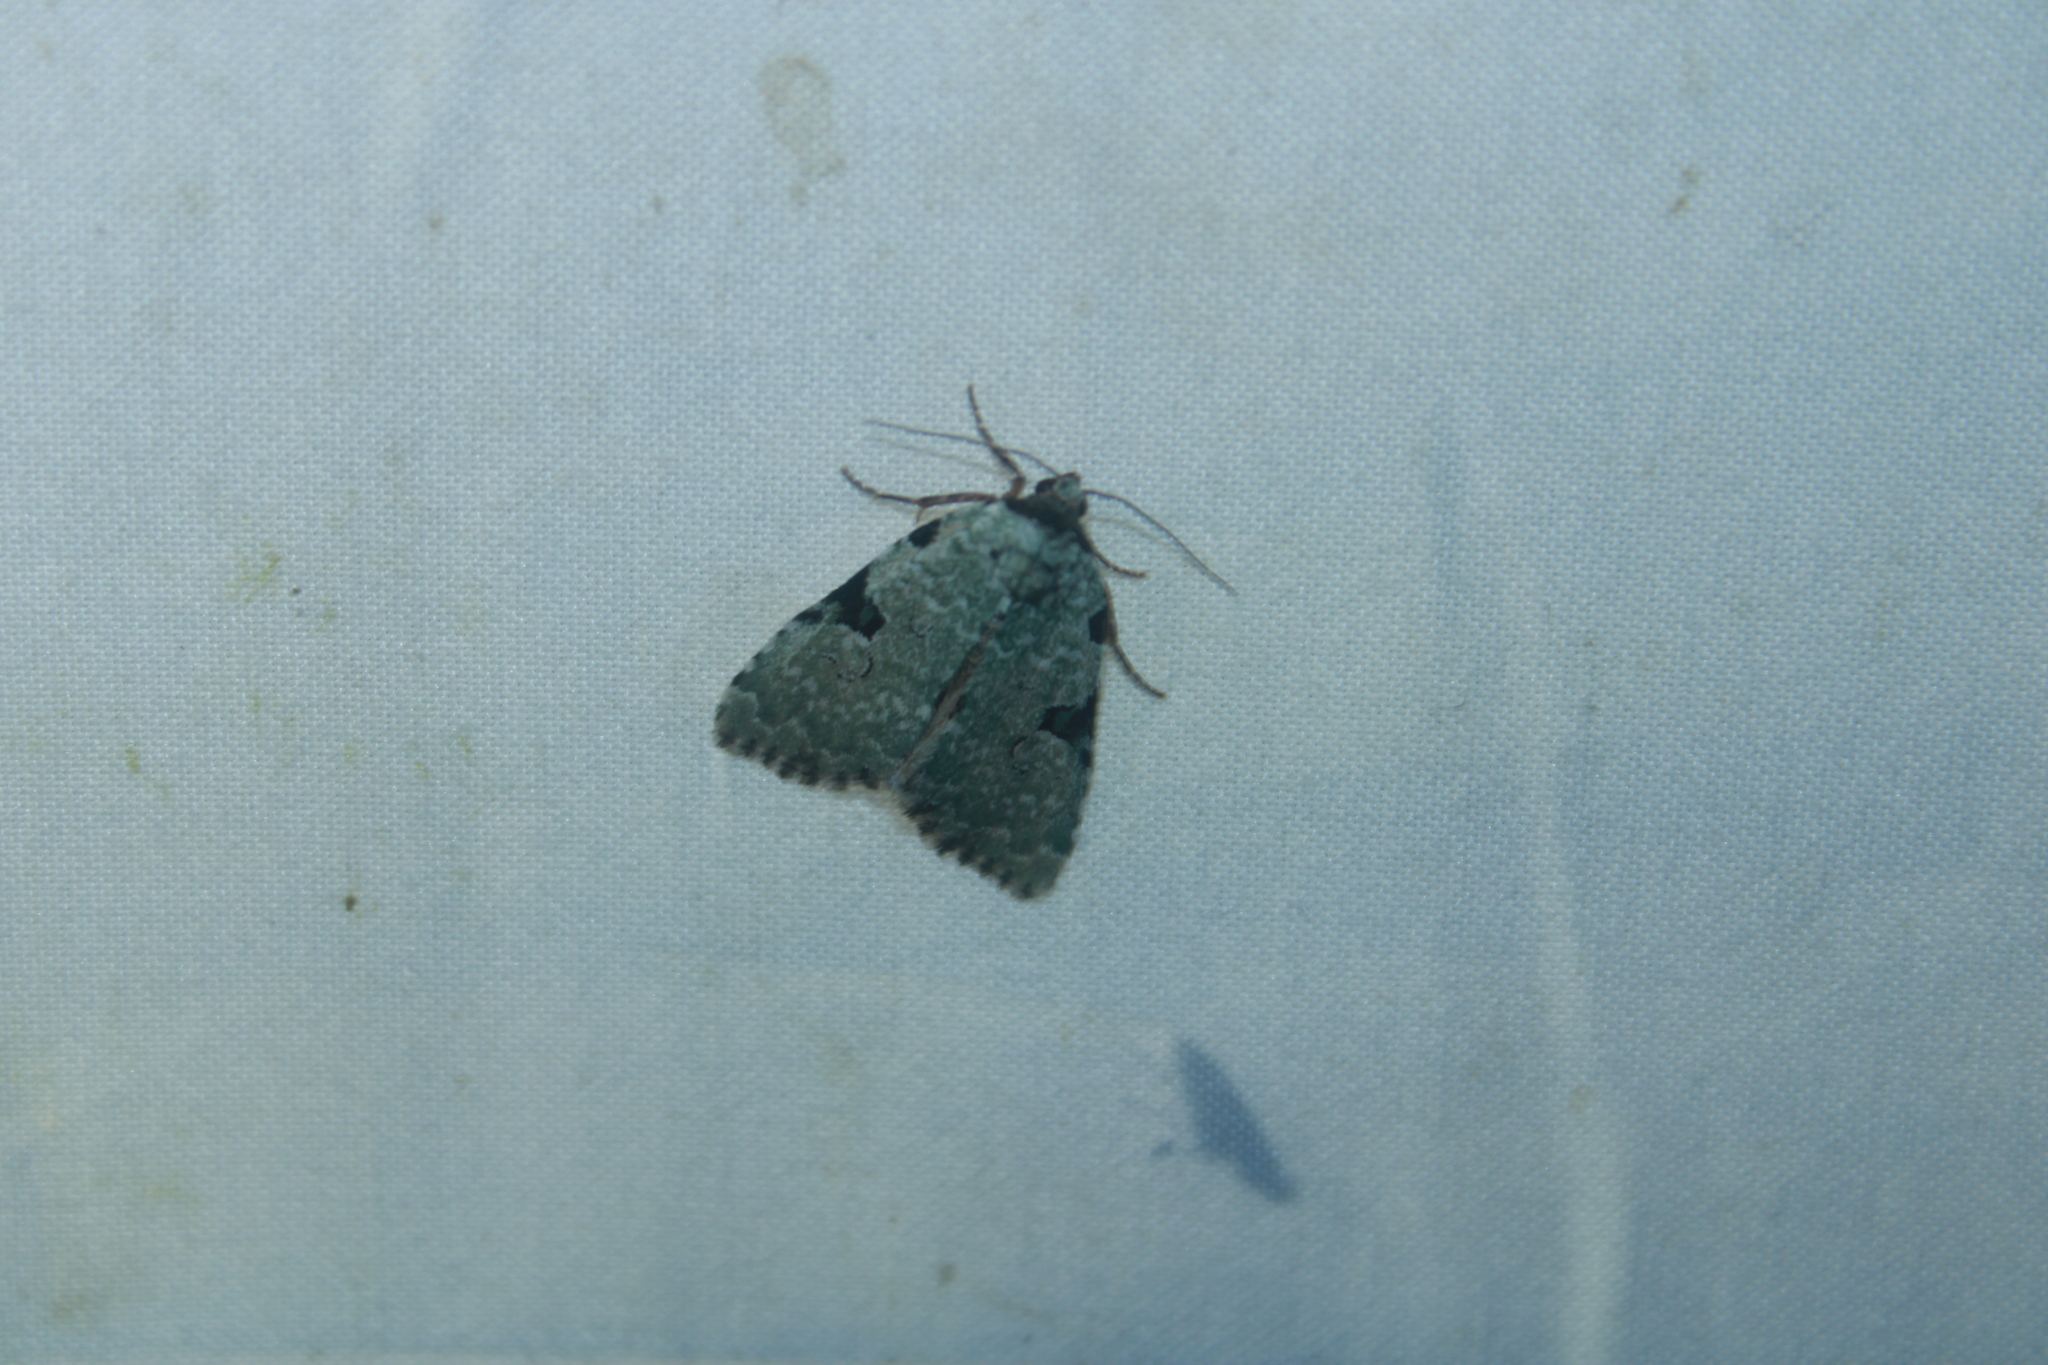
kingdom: Animalia
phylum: Arthropoda
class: Insecta
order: Lepidoptera
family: Noctuidae
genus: Leuconycta
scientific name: Leuconycta diphteroides
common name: Green leuconycta moth
